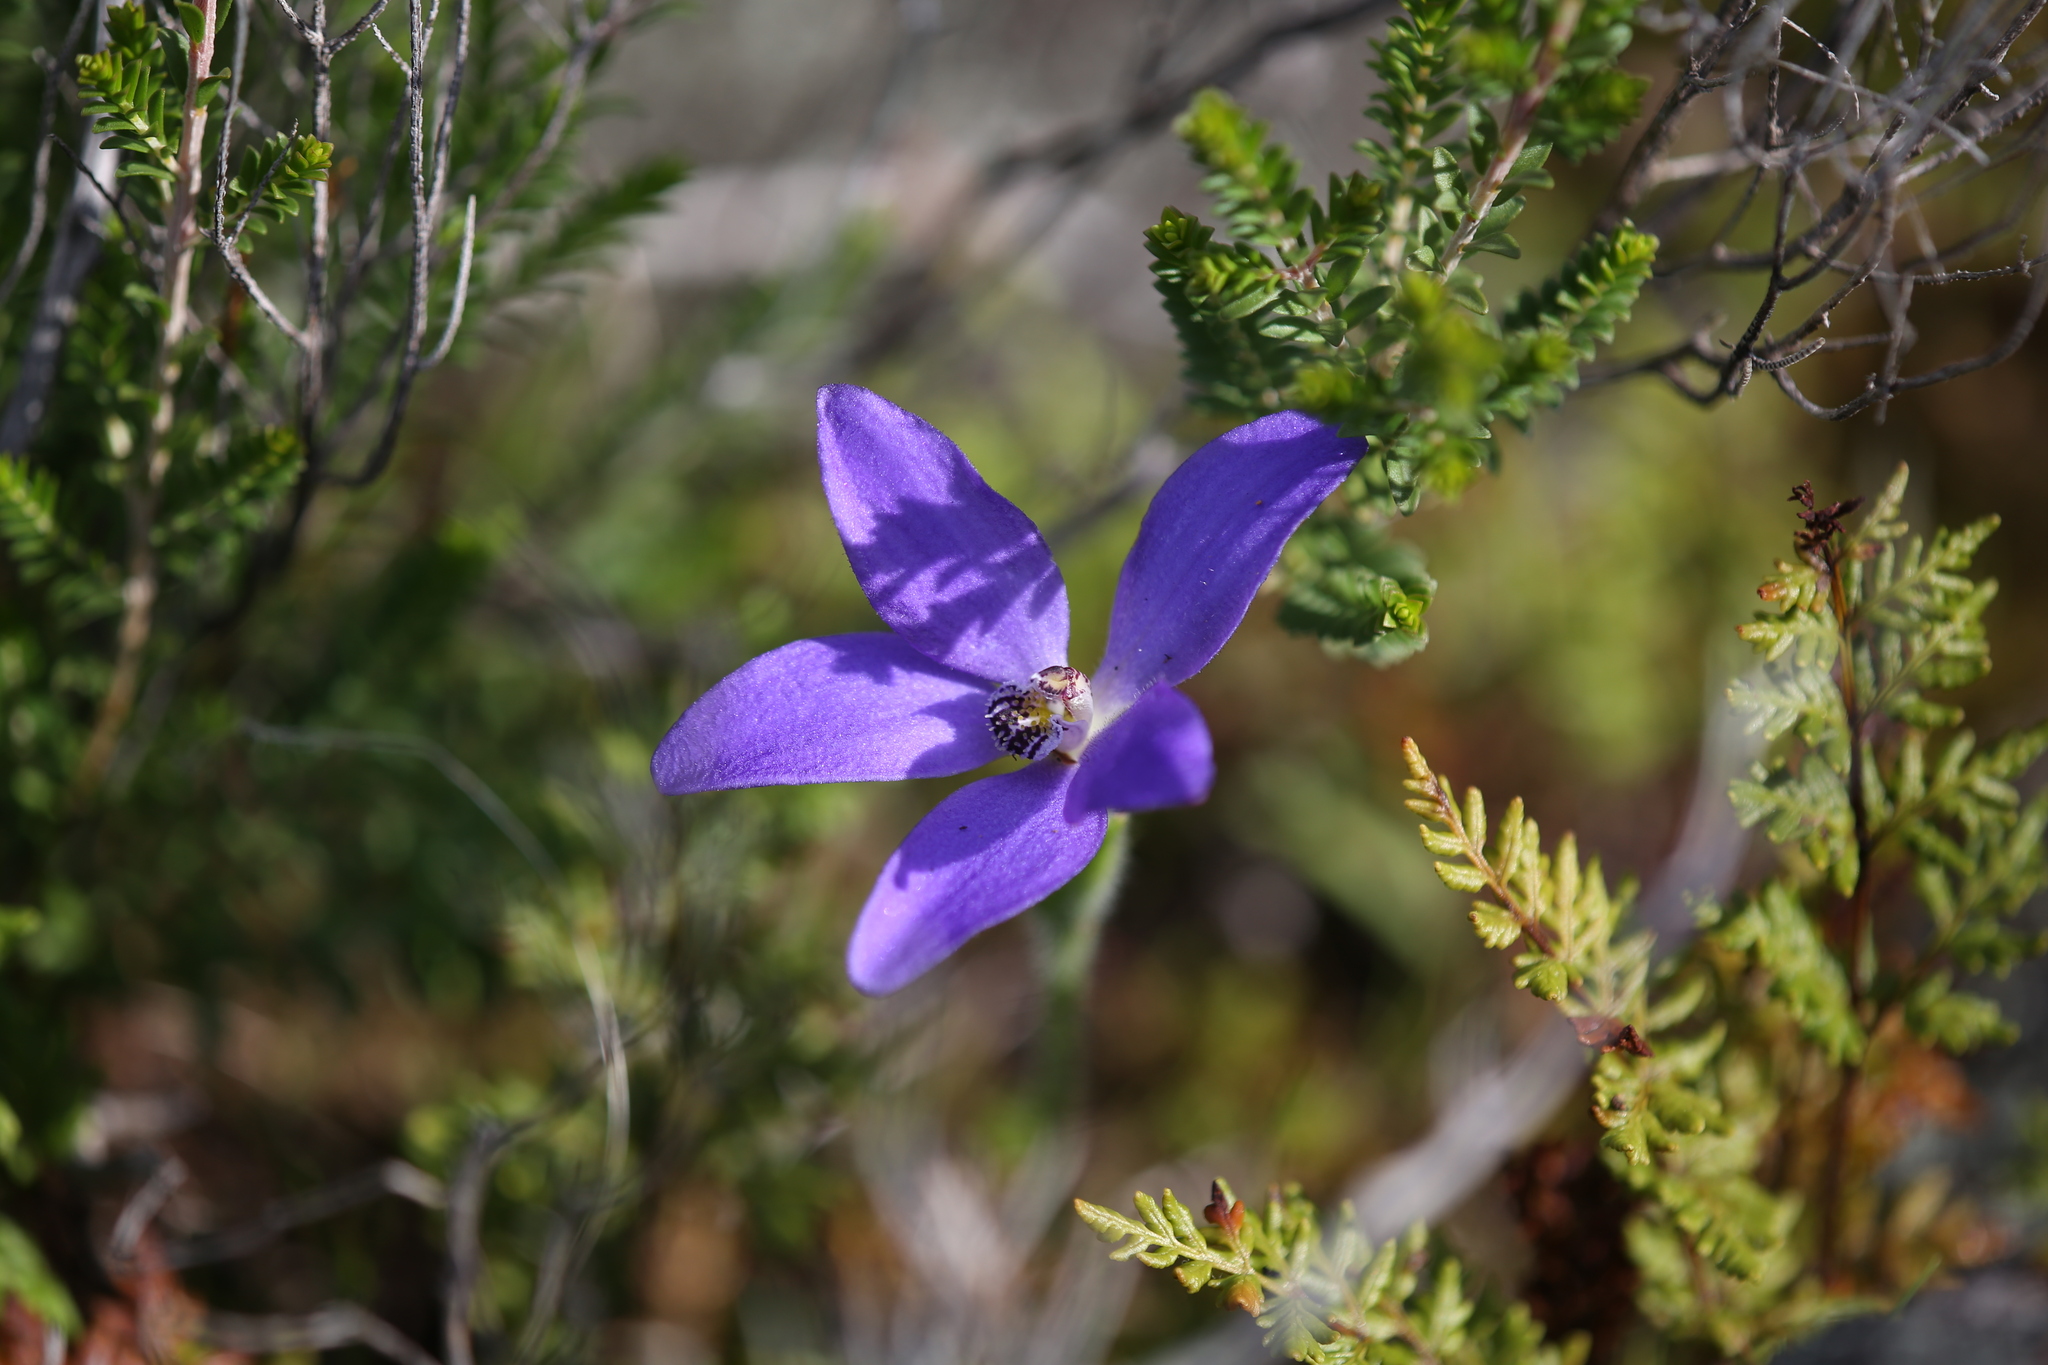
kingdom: Plantae
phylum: Tracheophyta
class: Liliopsida
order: Asparagales
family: Orchidaceae
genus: Caladenia
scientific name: Caladenia gemmata
